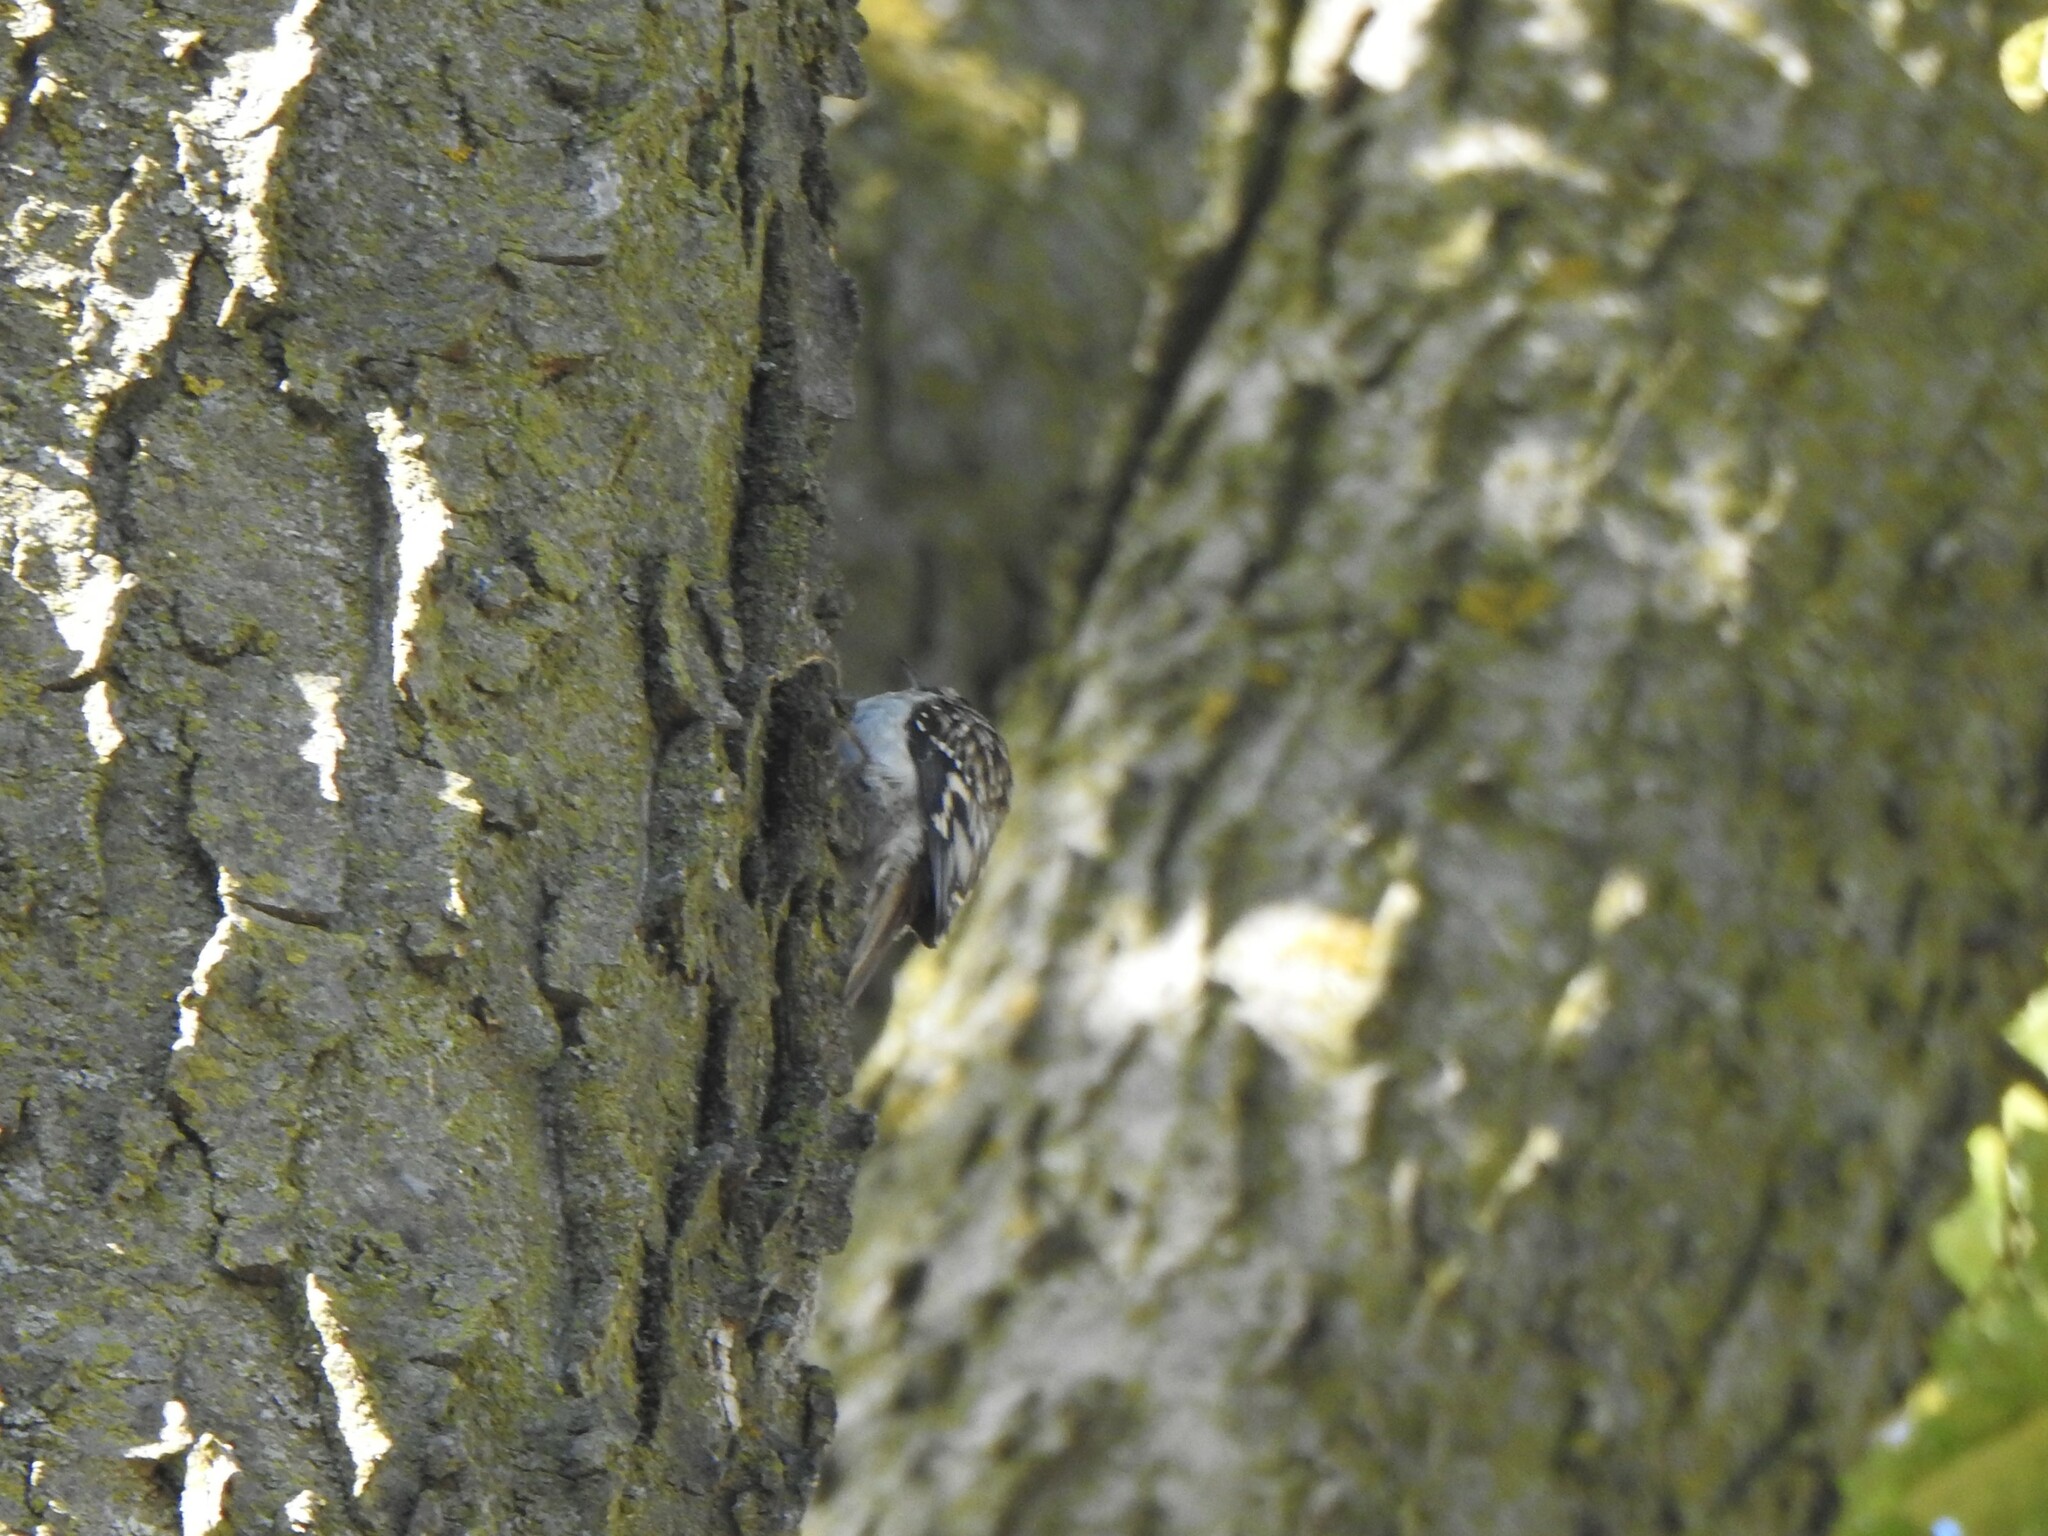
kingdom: Animalia
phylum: Chordata
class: Aves
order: Passeriformes
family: Certhiidae
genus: Certhia
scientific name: Certhia americana
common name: Brown creeper
